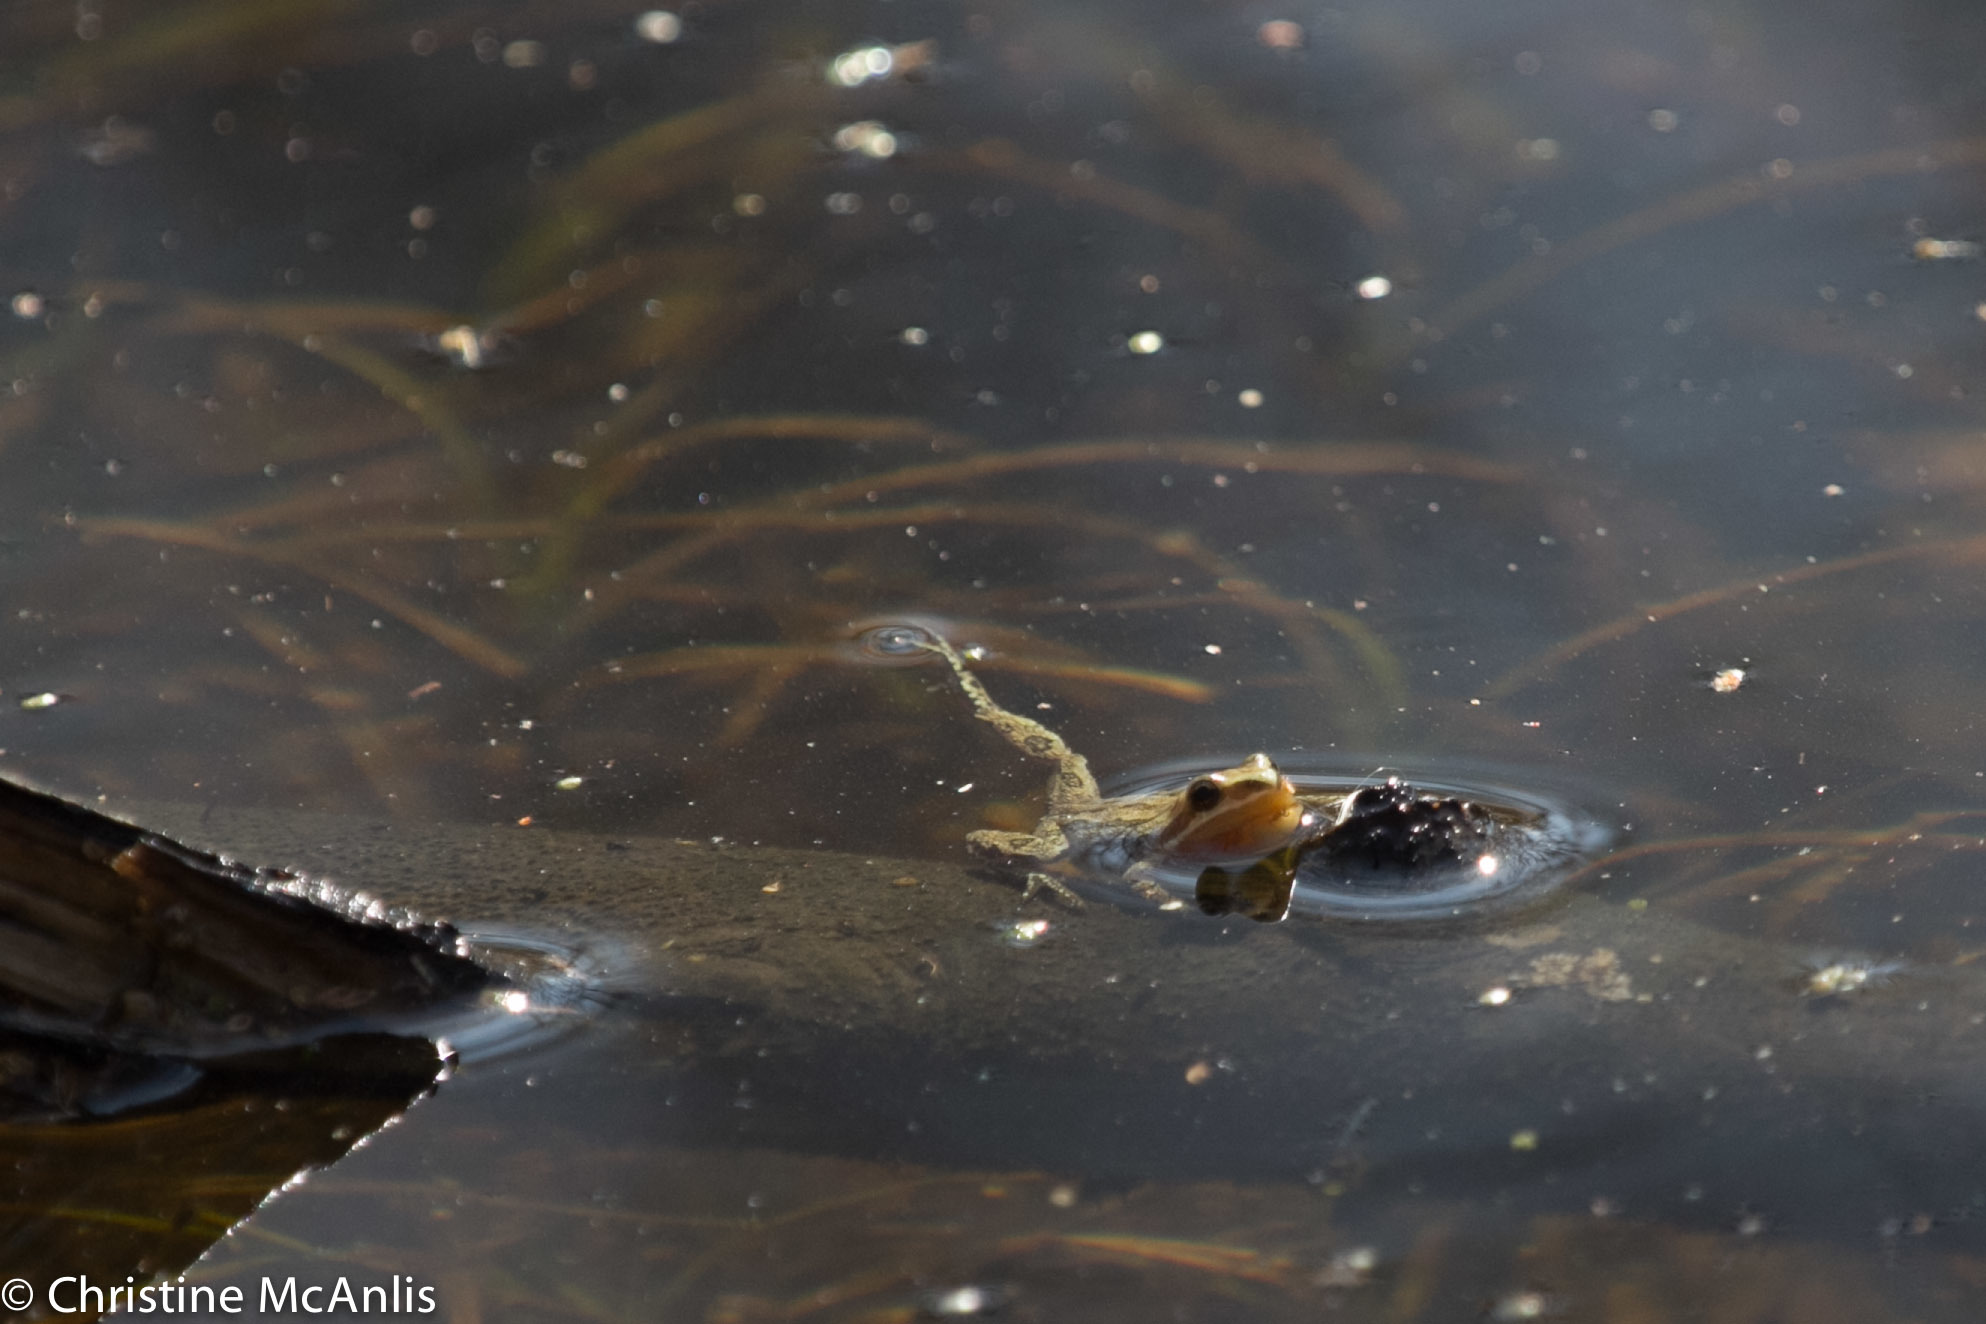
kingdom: Animalia
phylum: Chordata
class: Amphibia
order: Anura
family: Hylidae
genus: Pseudacris
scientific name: Pseudacris triseriata
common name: Western chorus frog
